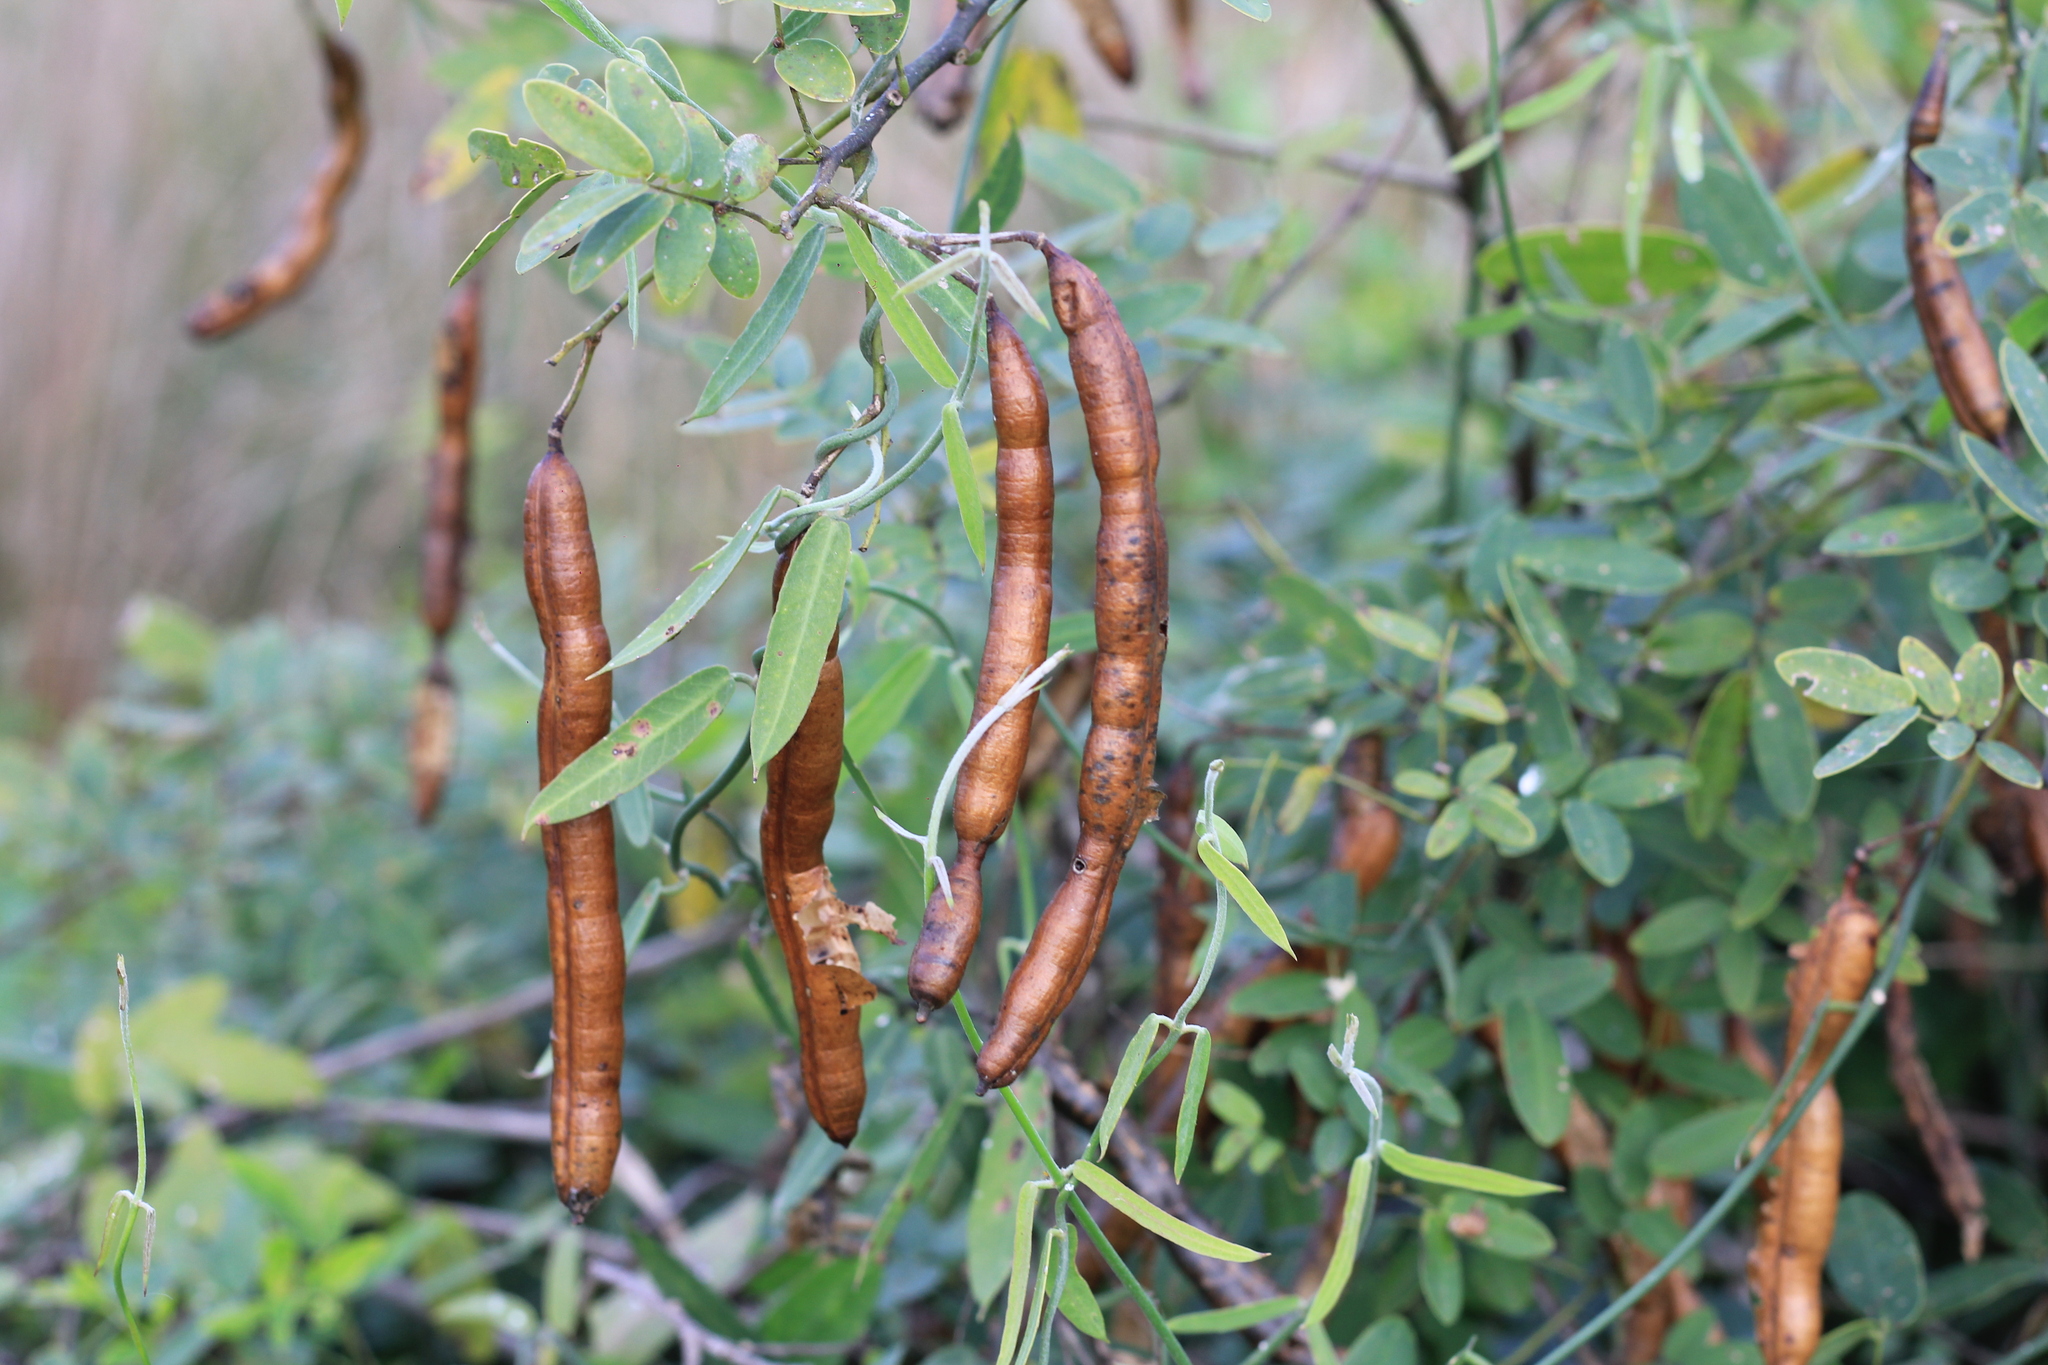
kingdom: Plantae
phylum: Tracheophyta
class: Magnoliopsida
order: Fabales
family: Fabaceae
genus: Senna
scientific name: Senna pendula
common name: Easter cassia
